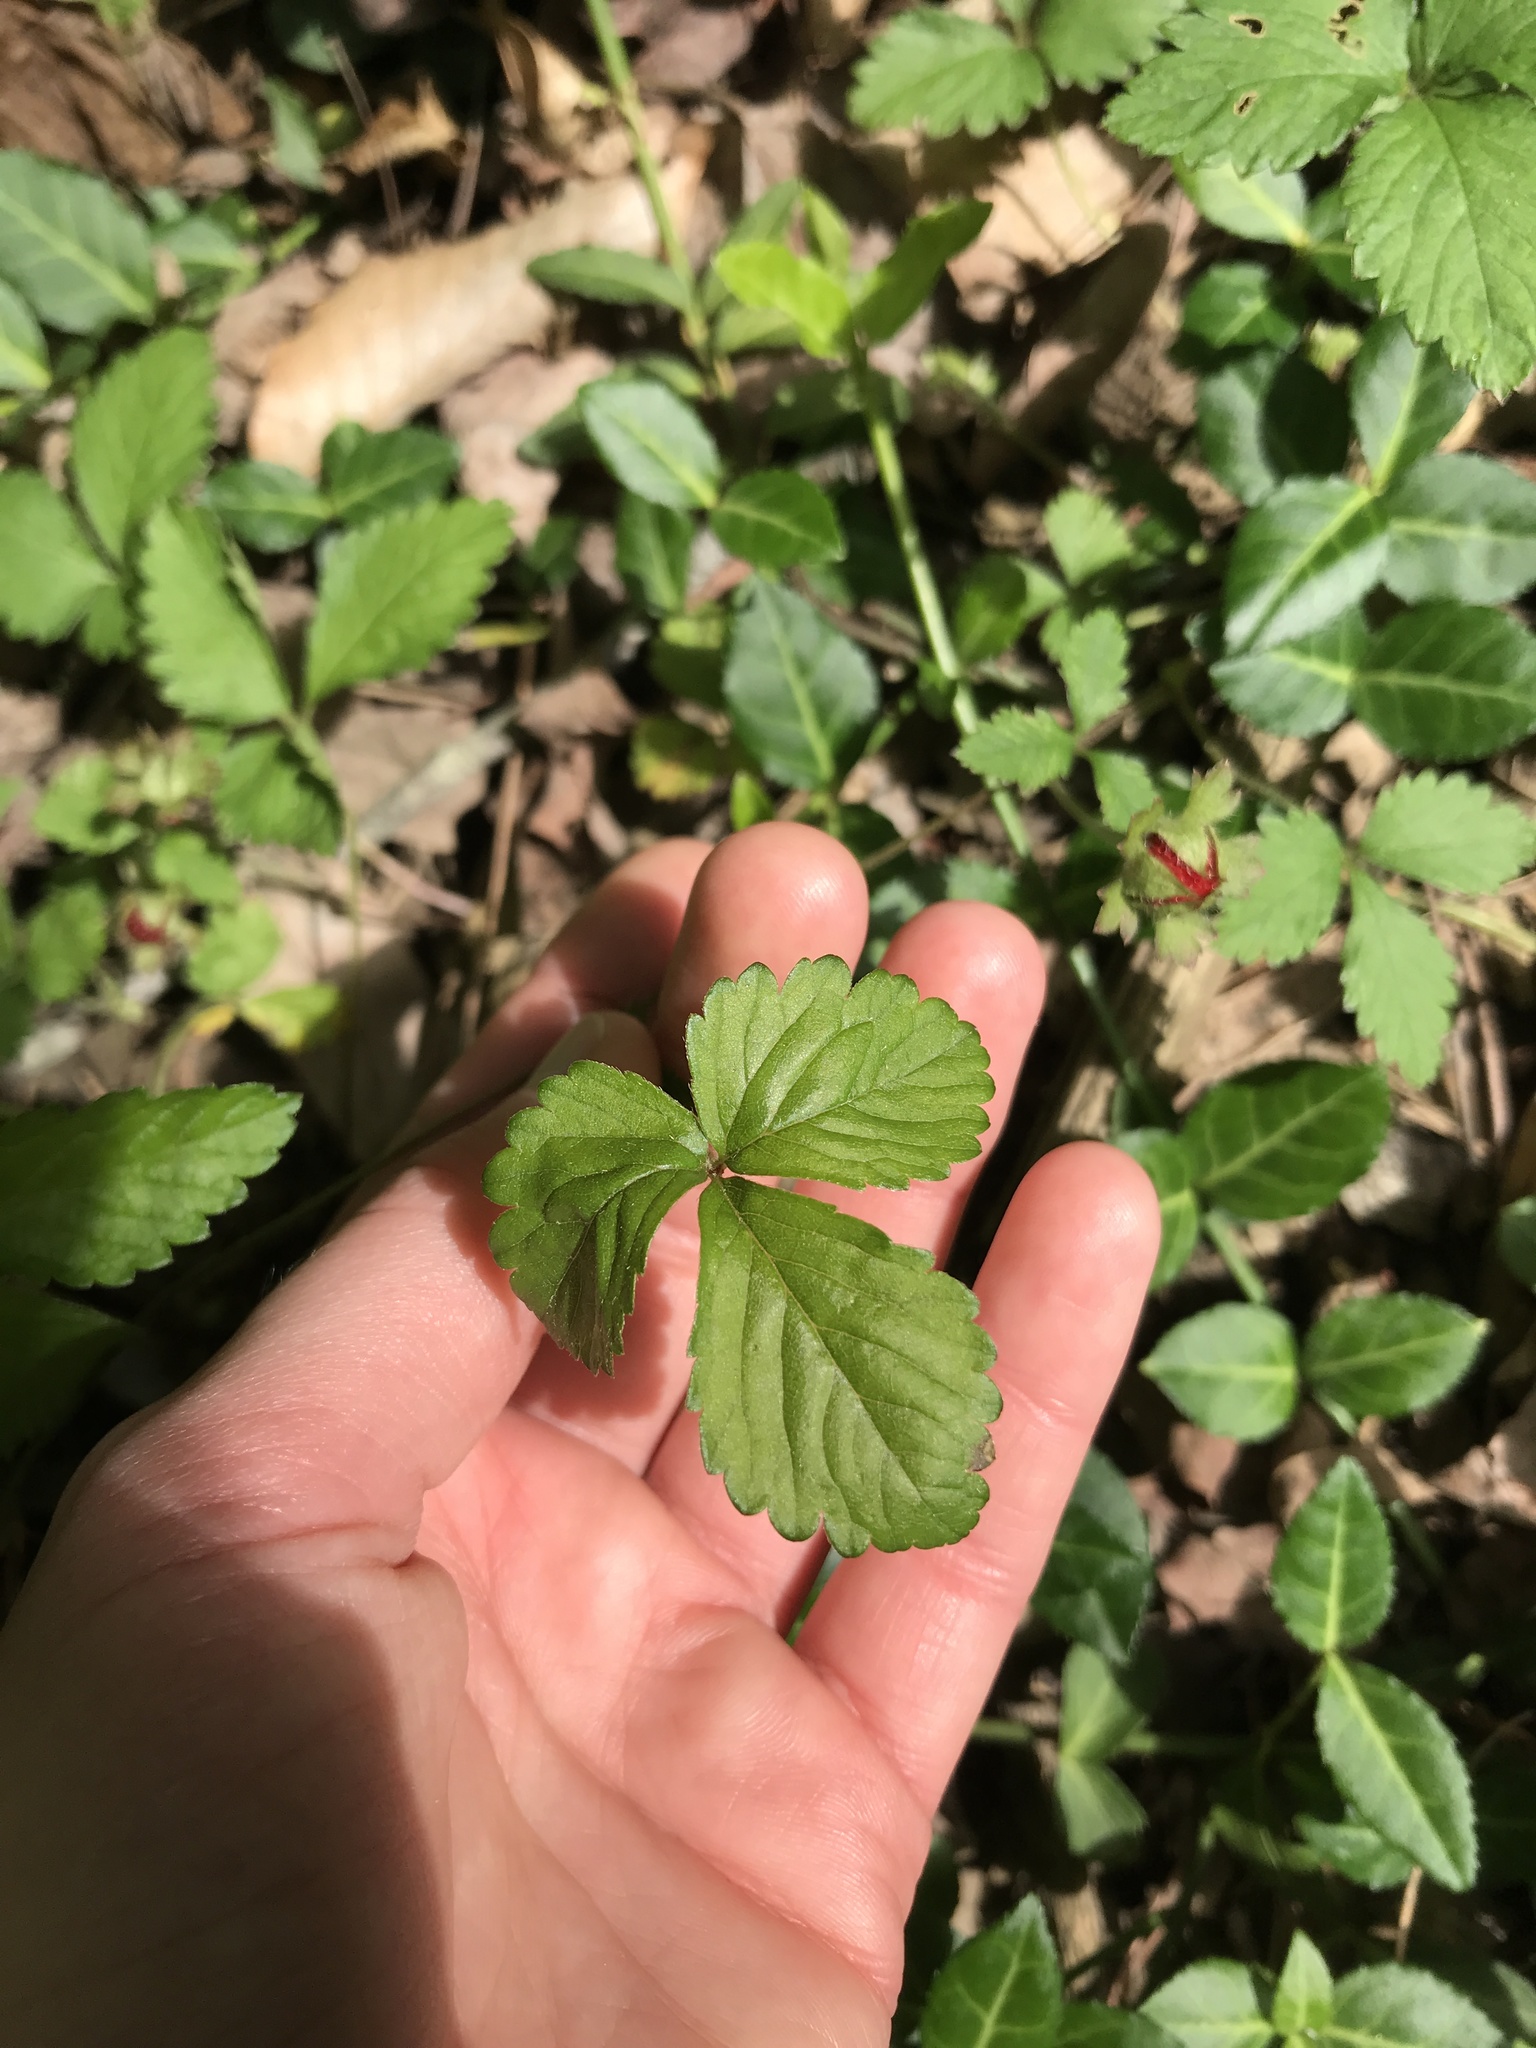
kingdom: Plantae
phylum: Tracheophyta
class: Magnoliopsida
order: Rosales
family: Rosaceae
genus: Potentilla
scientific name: Potentilla indica
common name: Yellow-flowered strawberry
